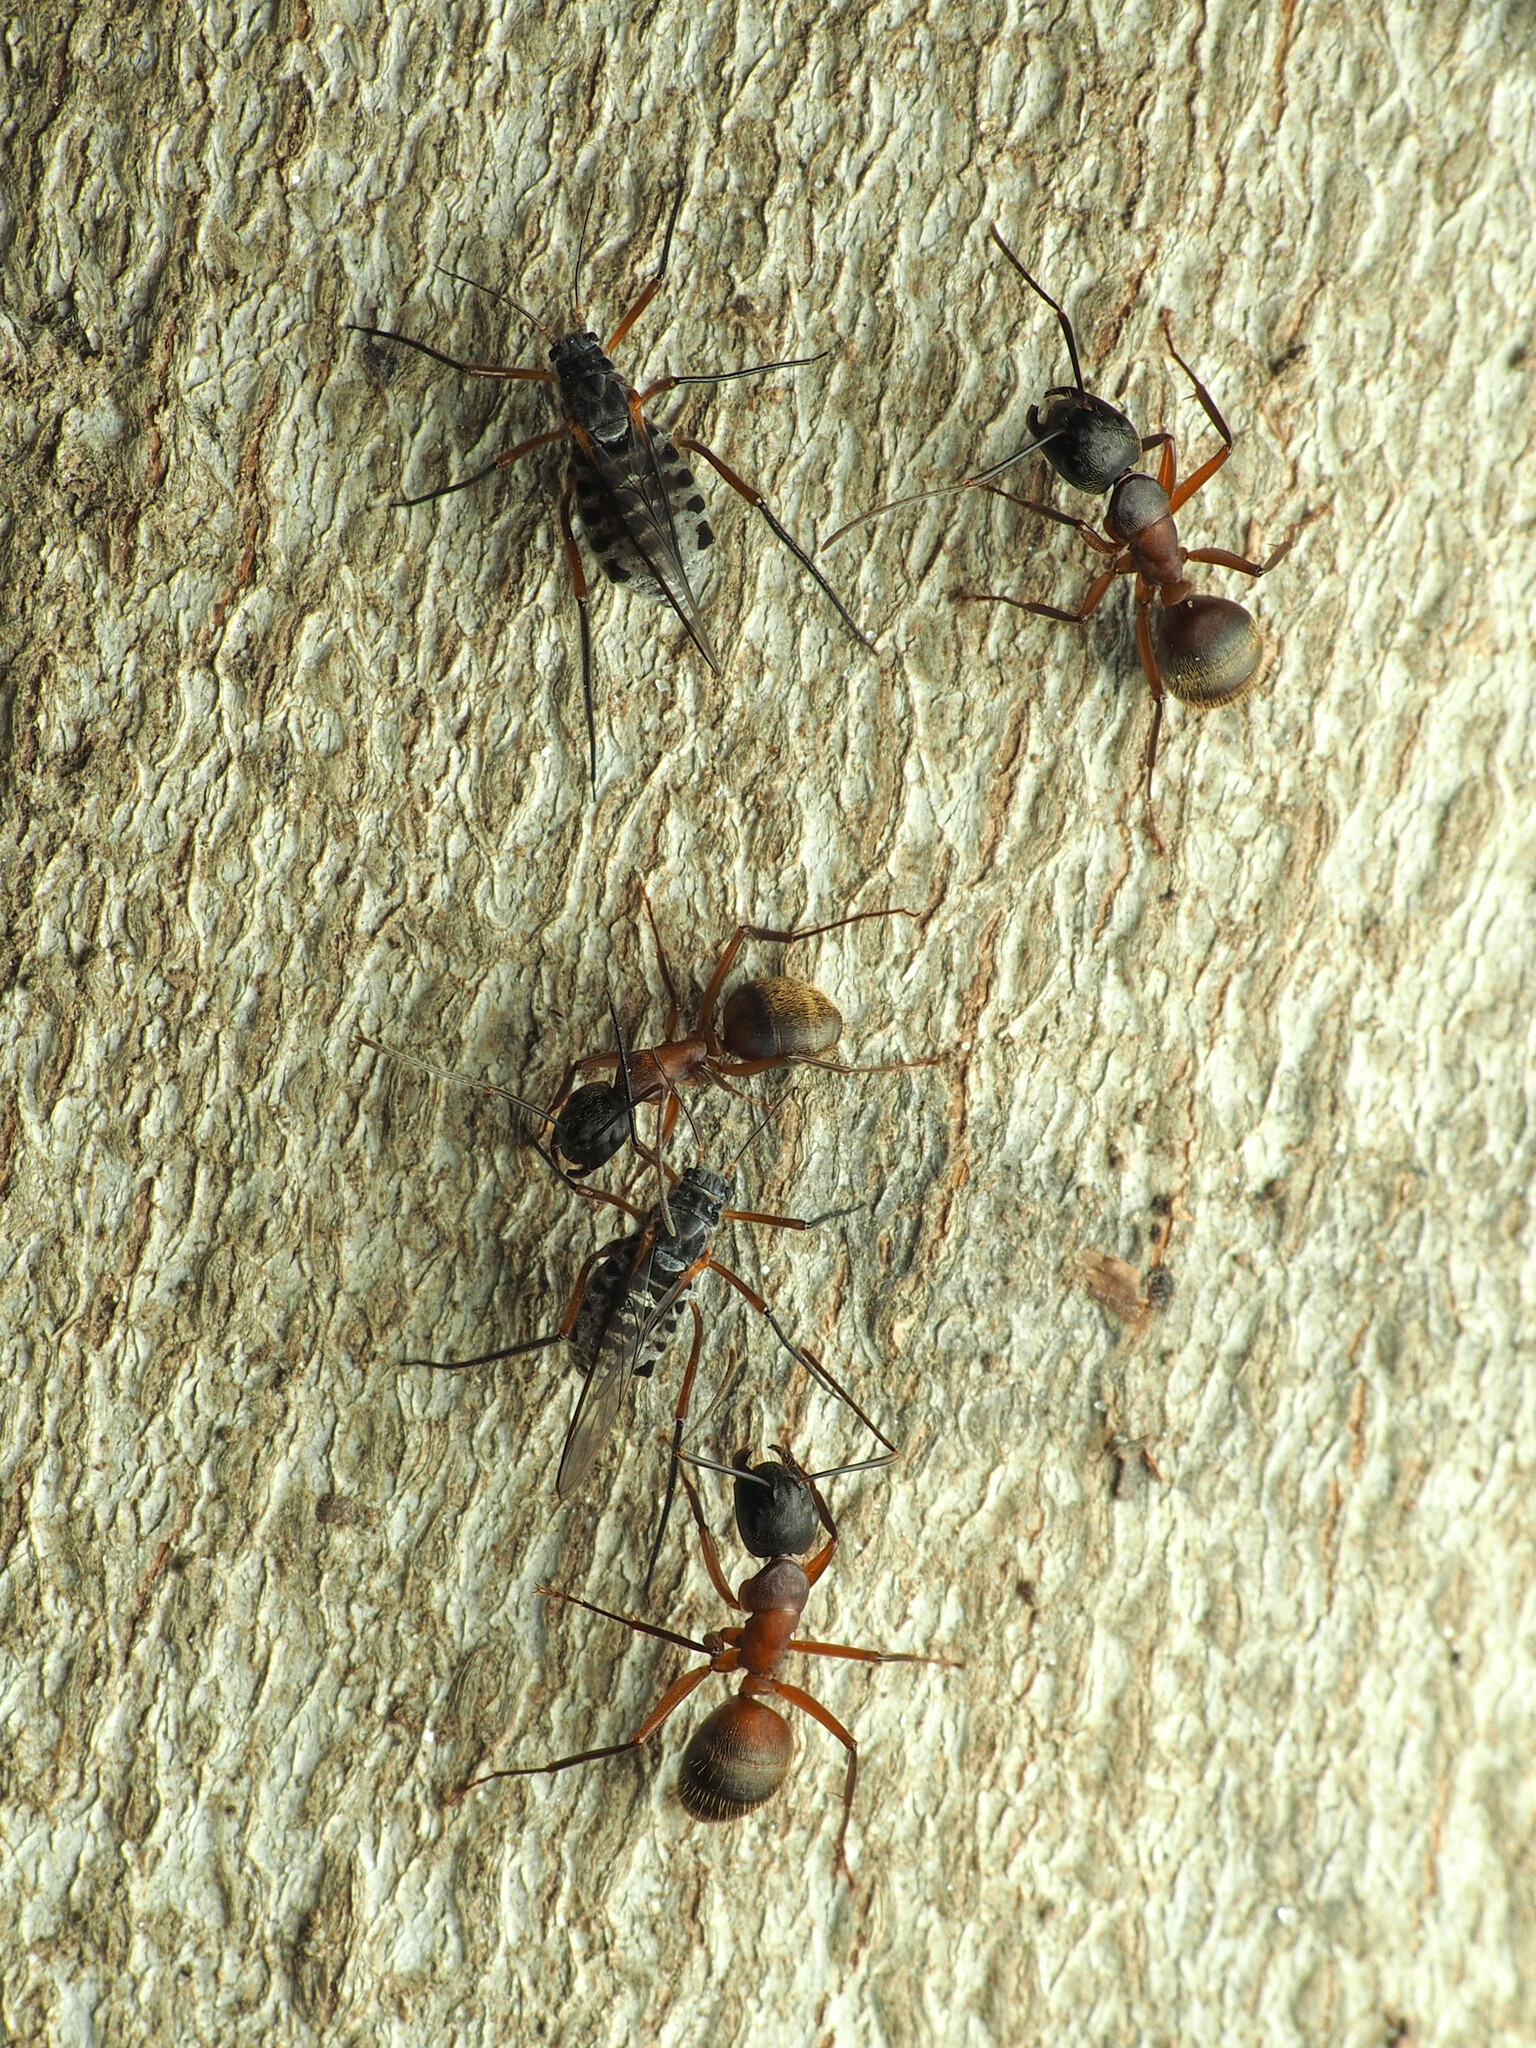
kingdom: Animalia
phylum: Arthropoda
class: Insecta
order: Hymenoptera
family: Formicidae
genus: Camponotus
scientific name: Camponotus chromaiodes
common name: Red carpenter ant
